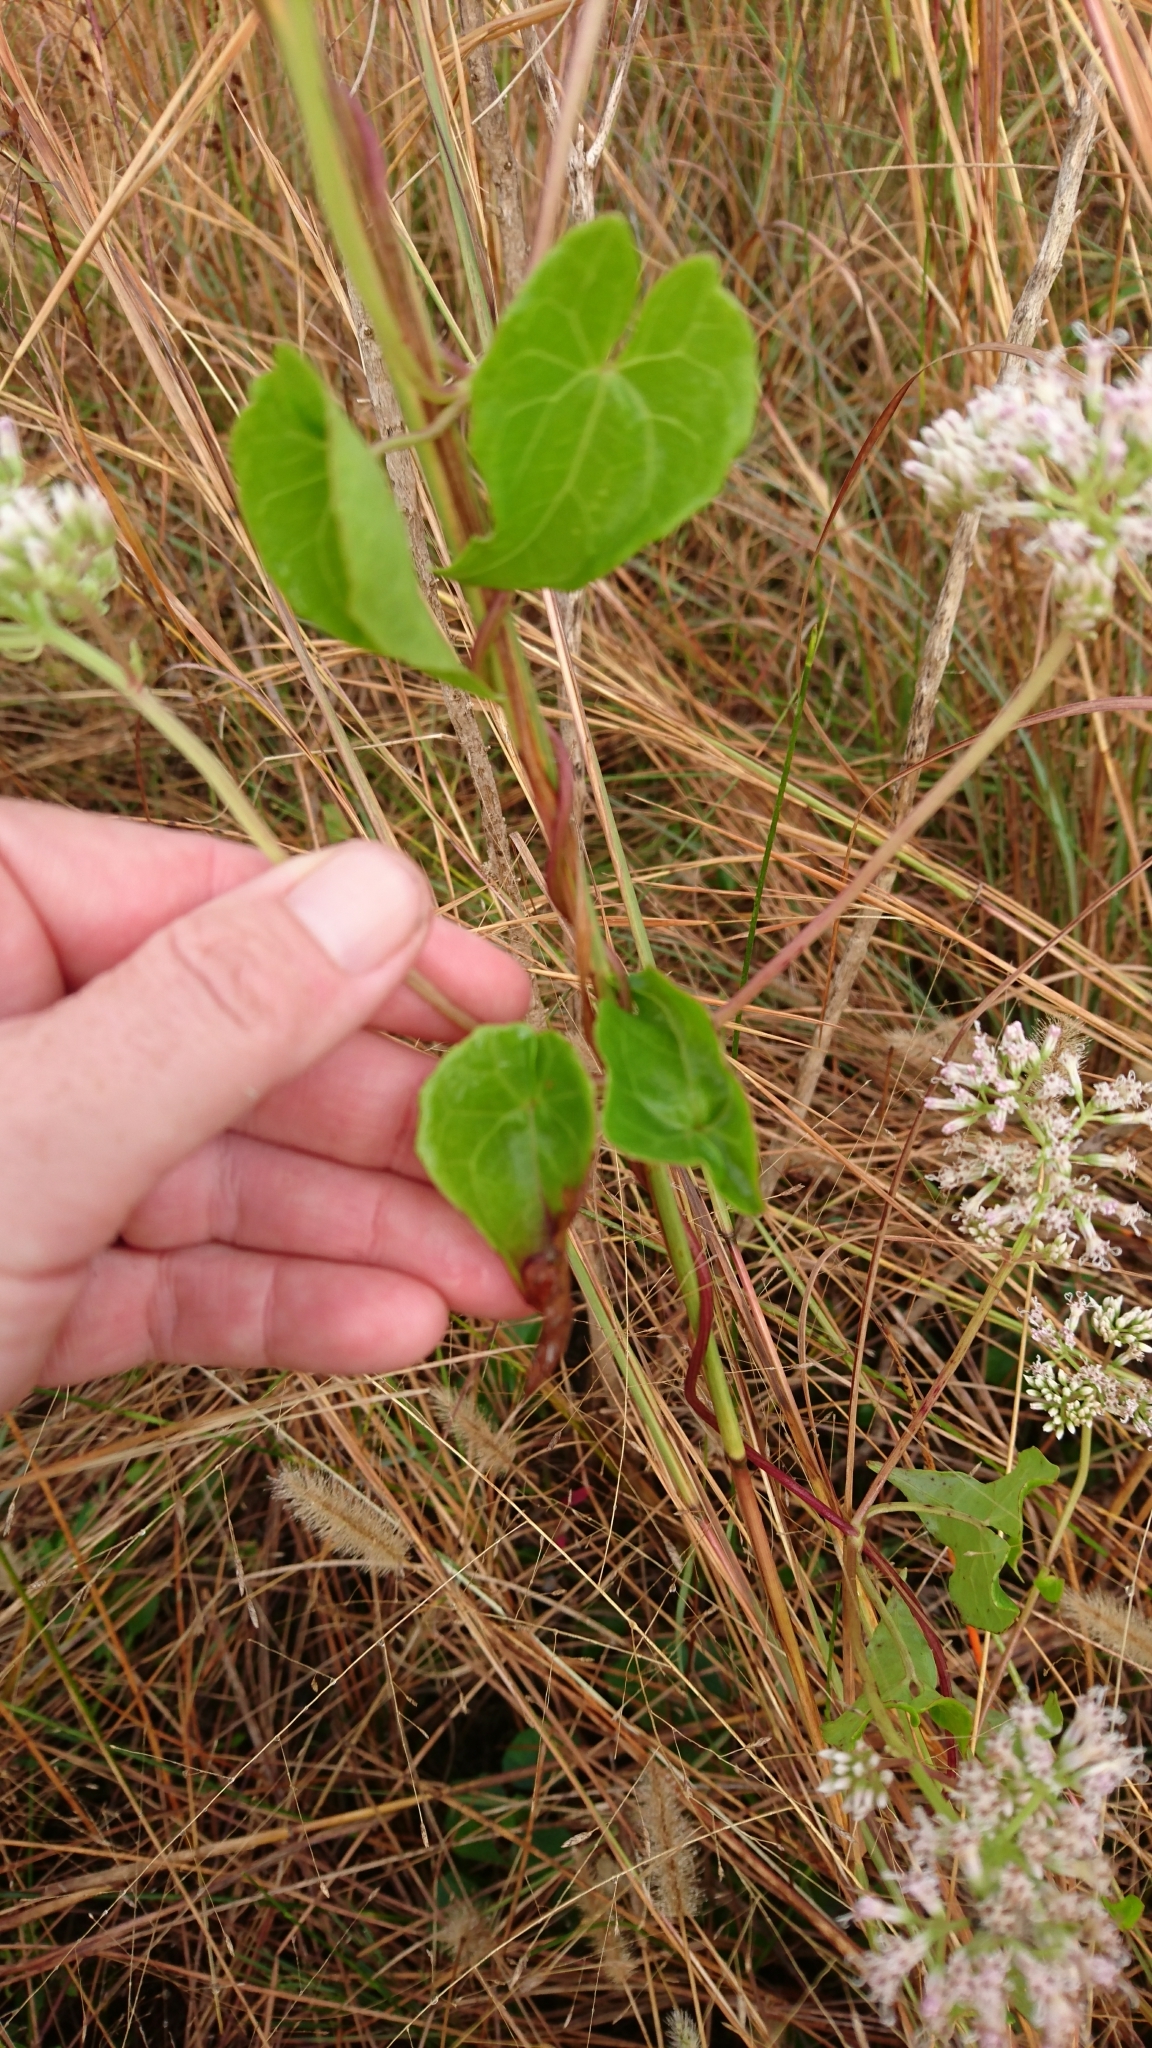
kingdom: Plantae
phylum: Tracheophyta
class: Magnoliopsida
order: Asterales
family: Asteraceae
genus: Mikania
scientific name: Mikania scandens
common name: Climbing hempvine
